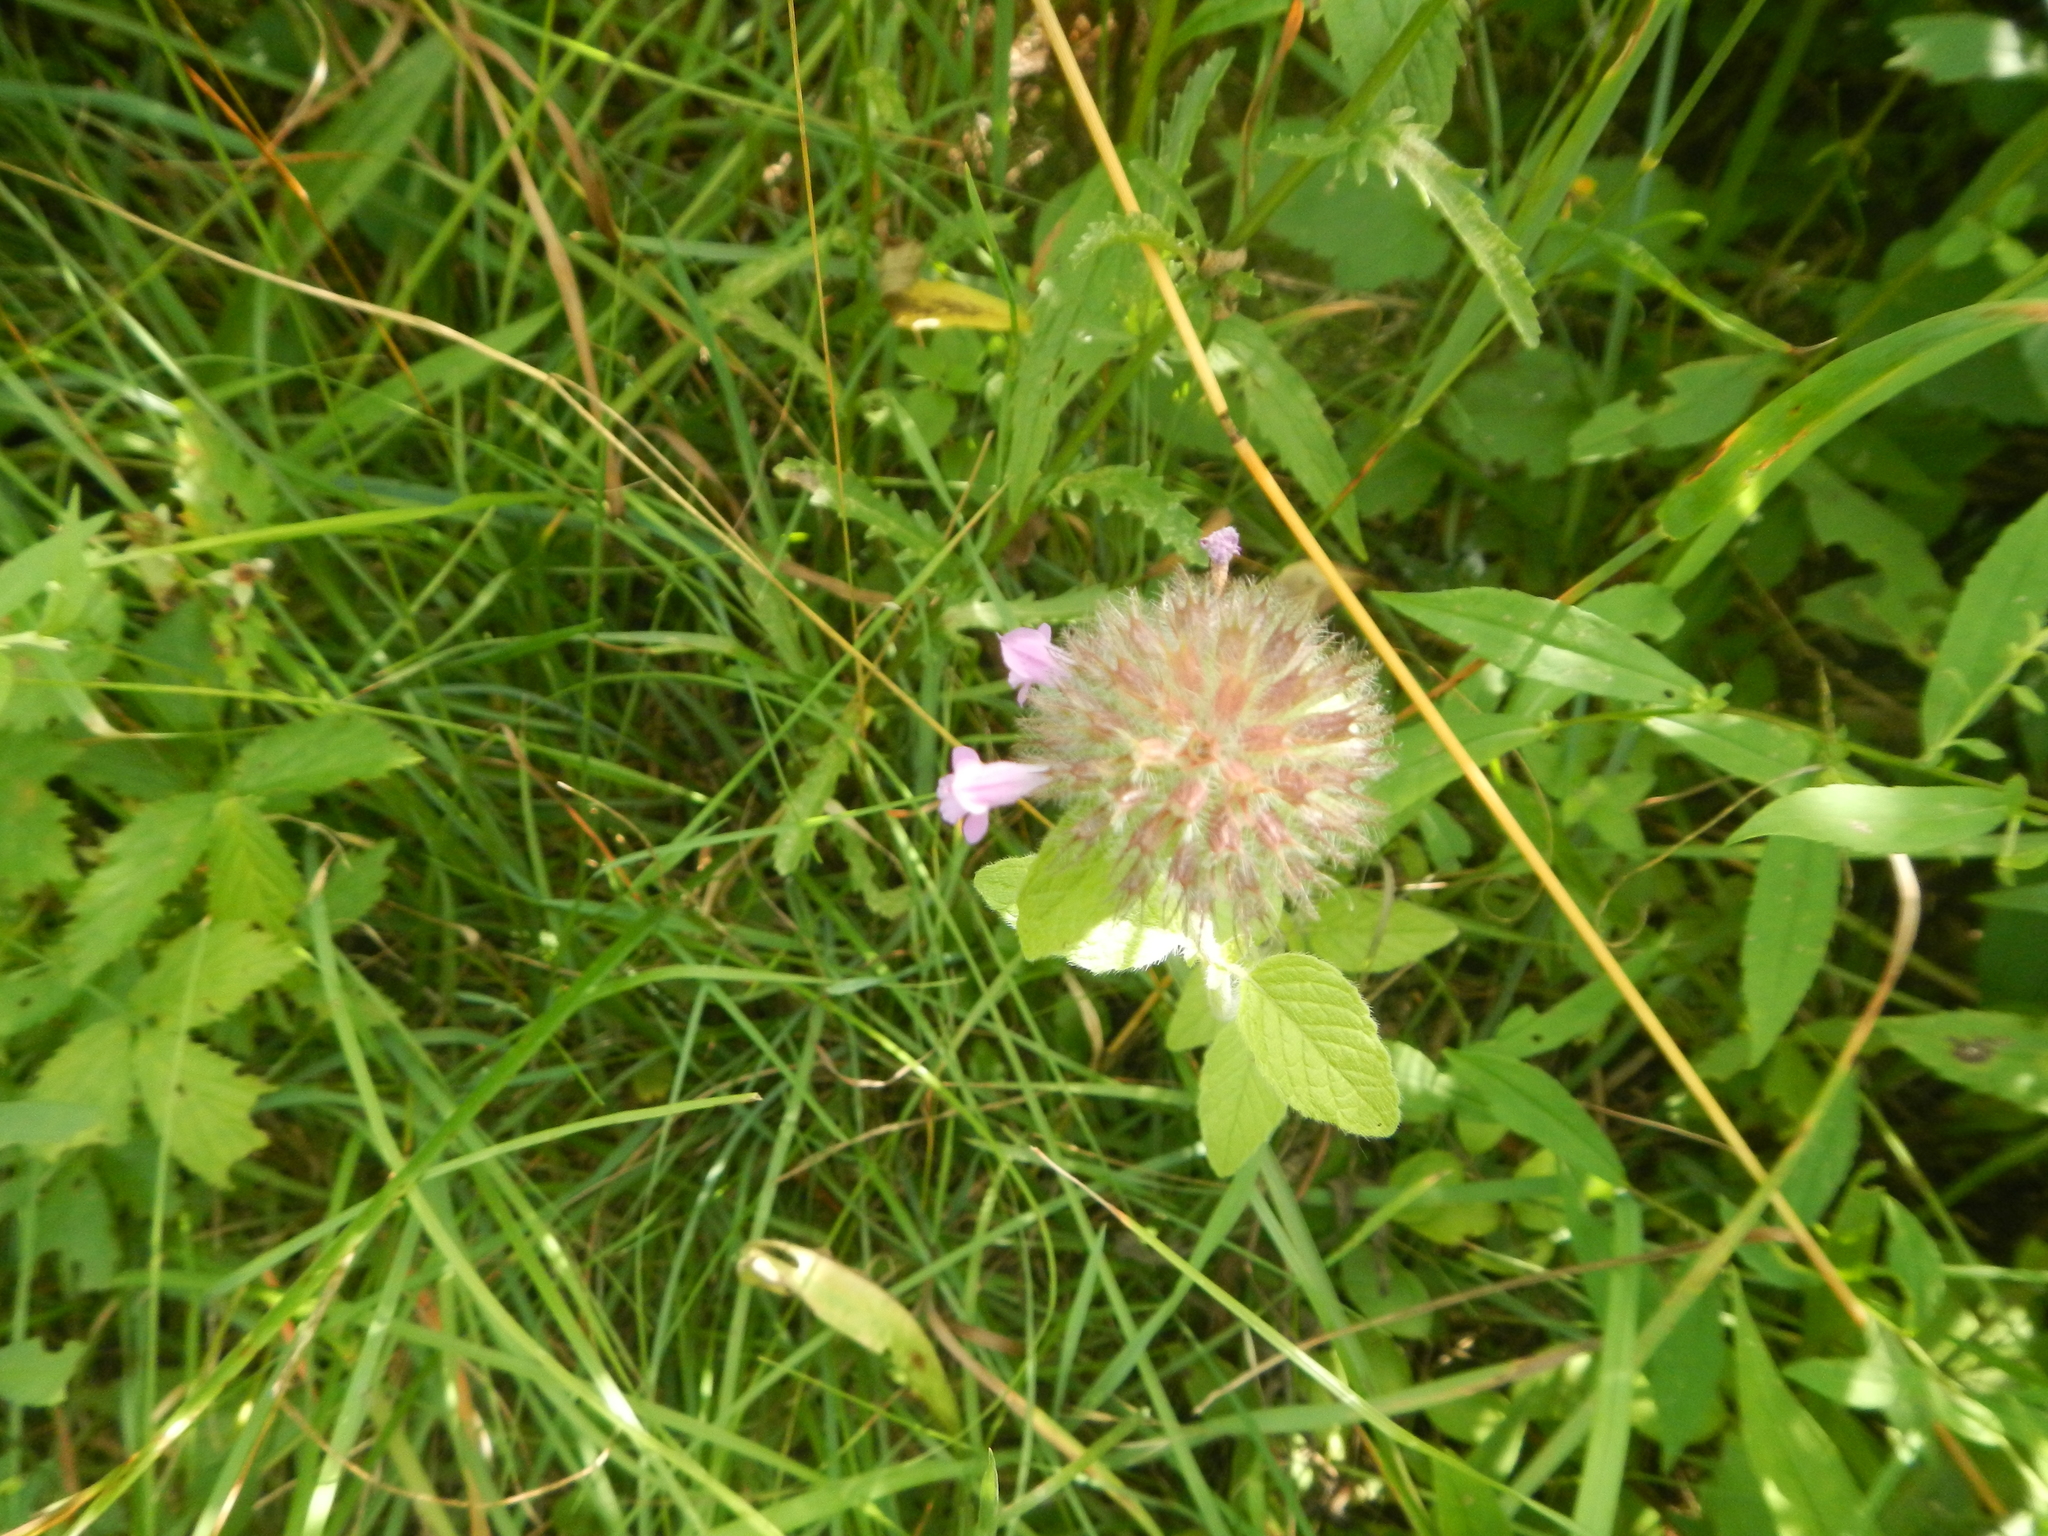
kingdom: Plantae
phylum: Tracheophyta
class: Magnoliopsida
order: Lamiales
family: Lamiaceae
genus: Clinopodium
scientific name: Clinopodium vulgare
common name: Wild basil
